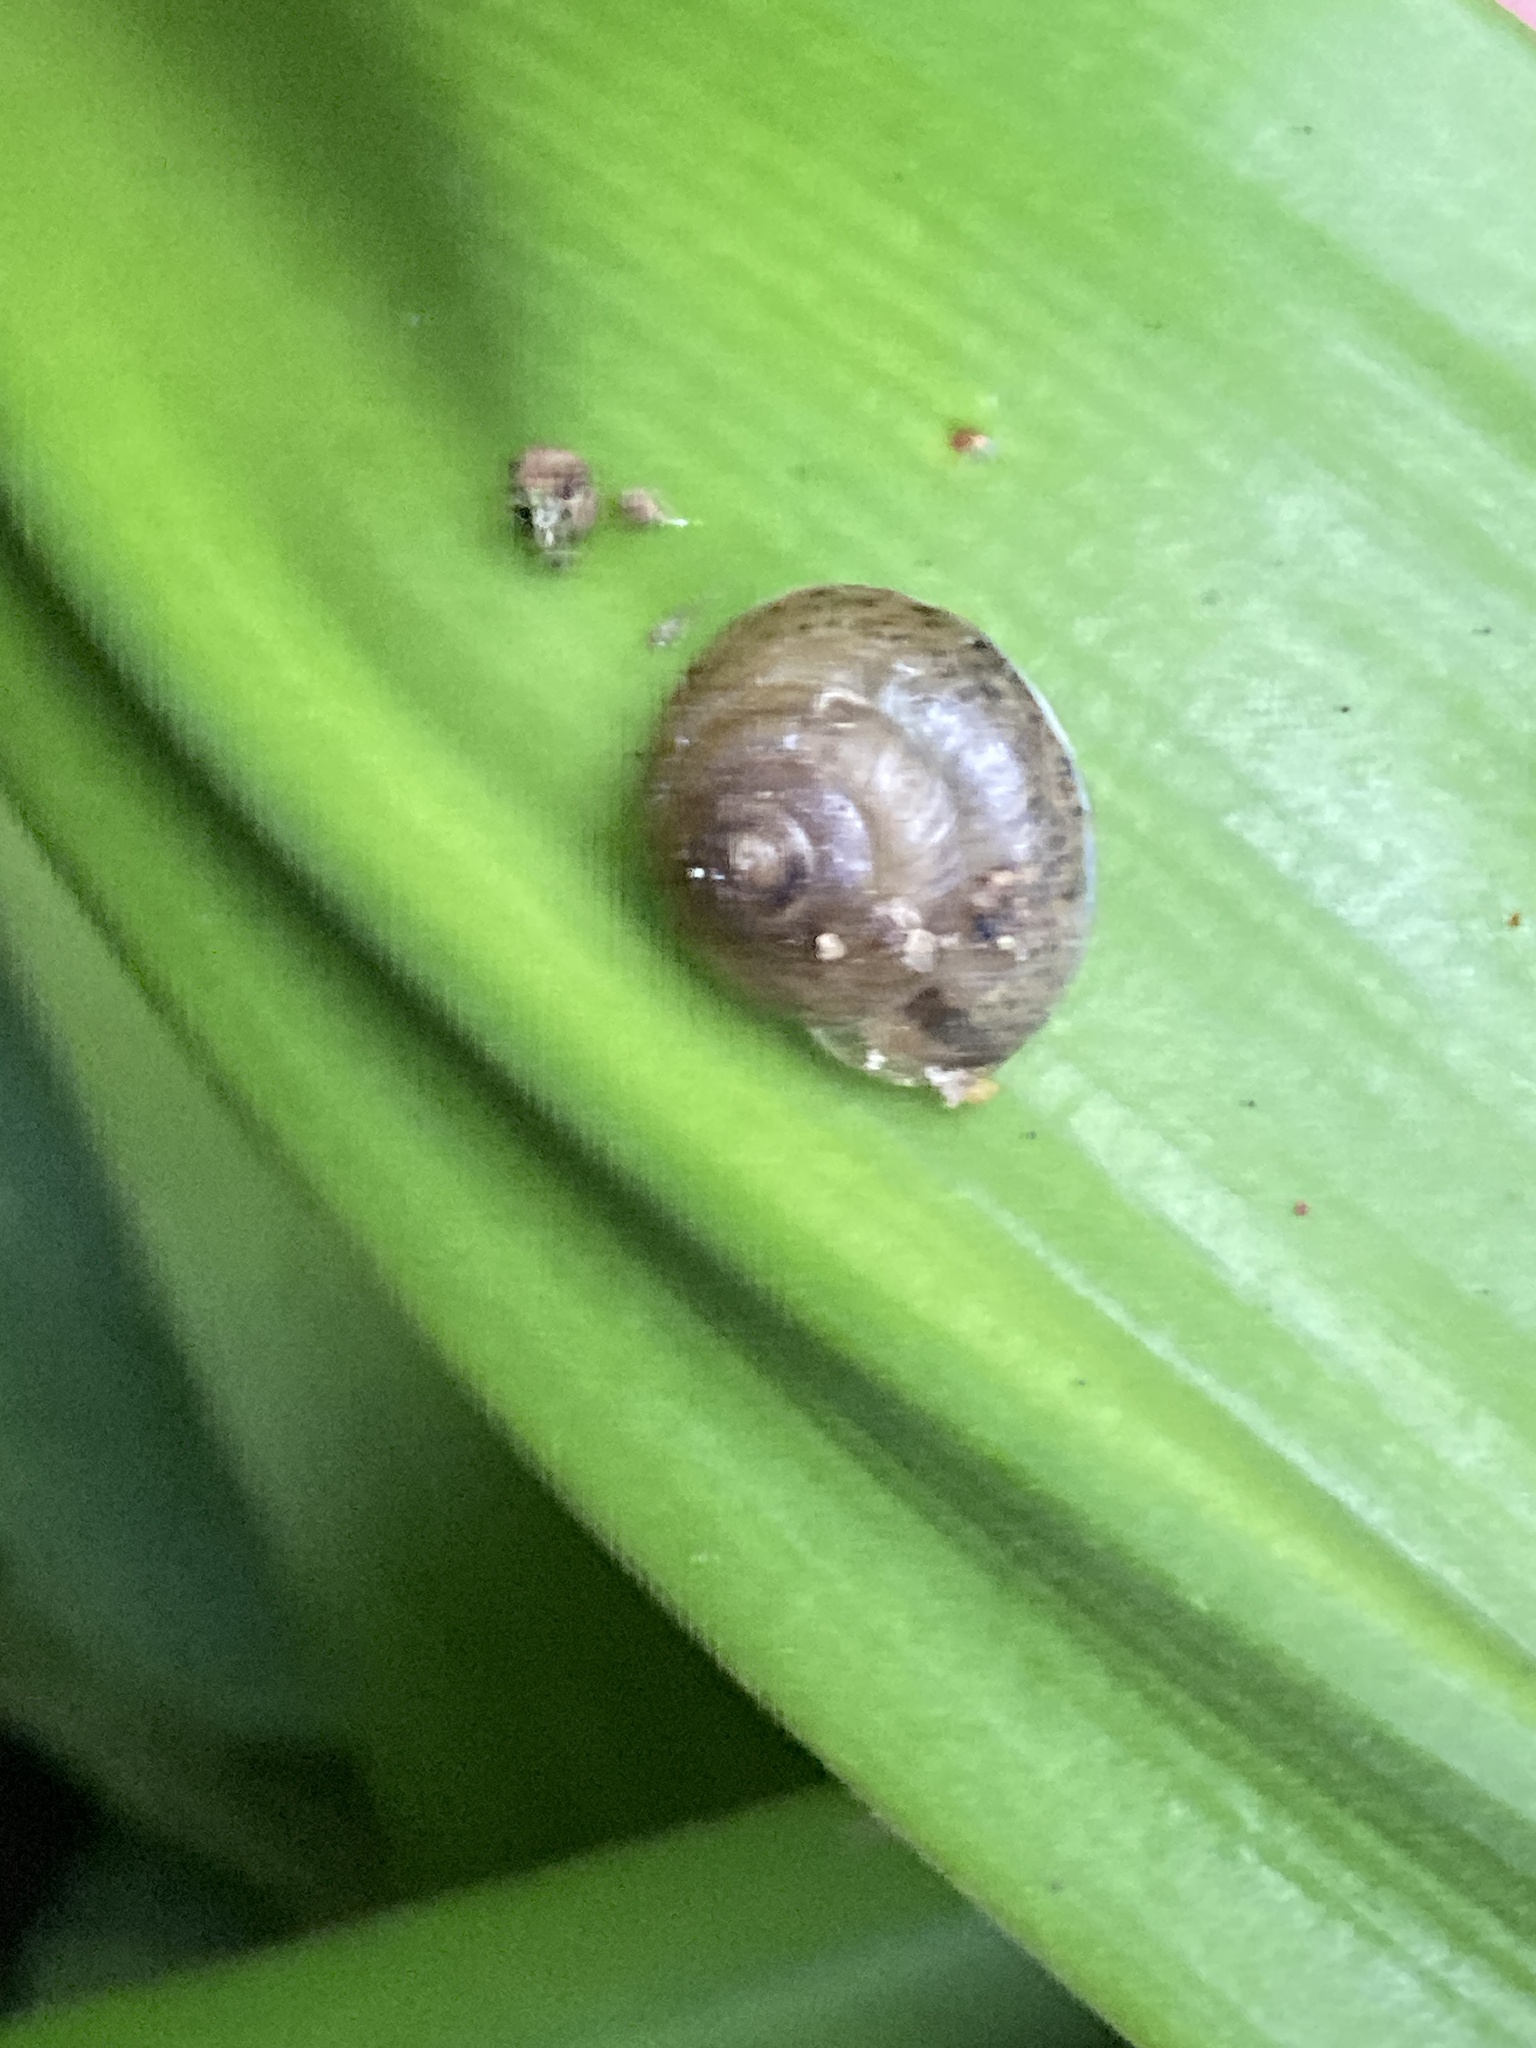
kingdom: Animalia
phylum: Mollusca
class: Gastropoda
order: Stylommatophora
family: Hygromiidae
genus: Hygromia
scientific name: Hygromia cinctella
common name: Girdled snail
